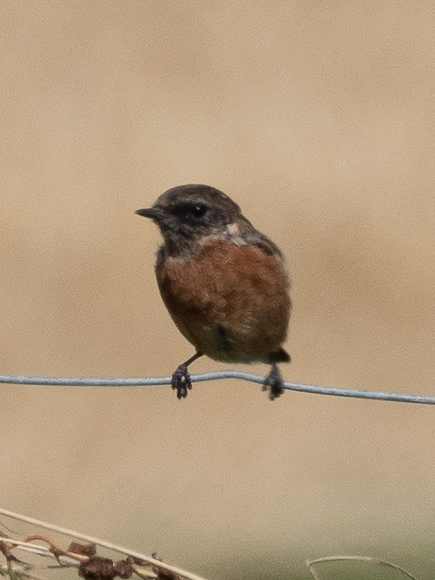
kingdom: Animalia
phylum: Chordata
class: Aves
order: Passeriformes
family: Muscicapidae
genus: Saxicola
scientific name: Saxicola rubicola
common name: European stonechat
